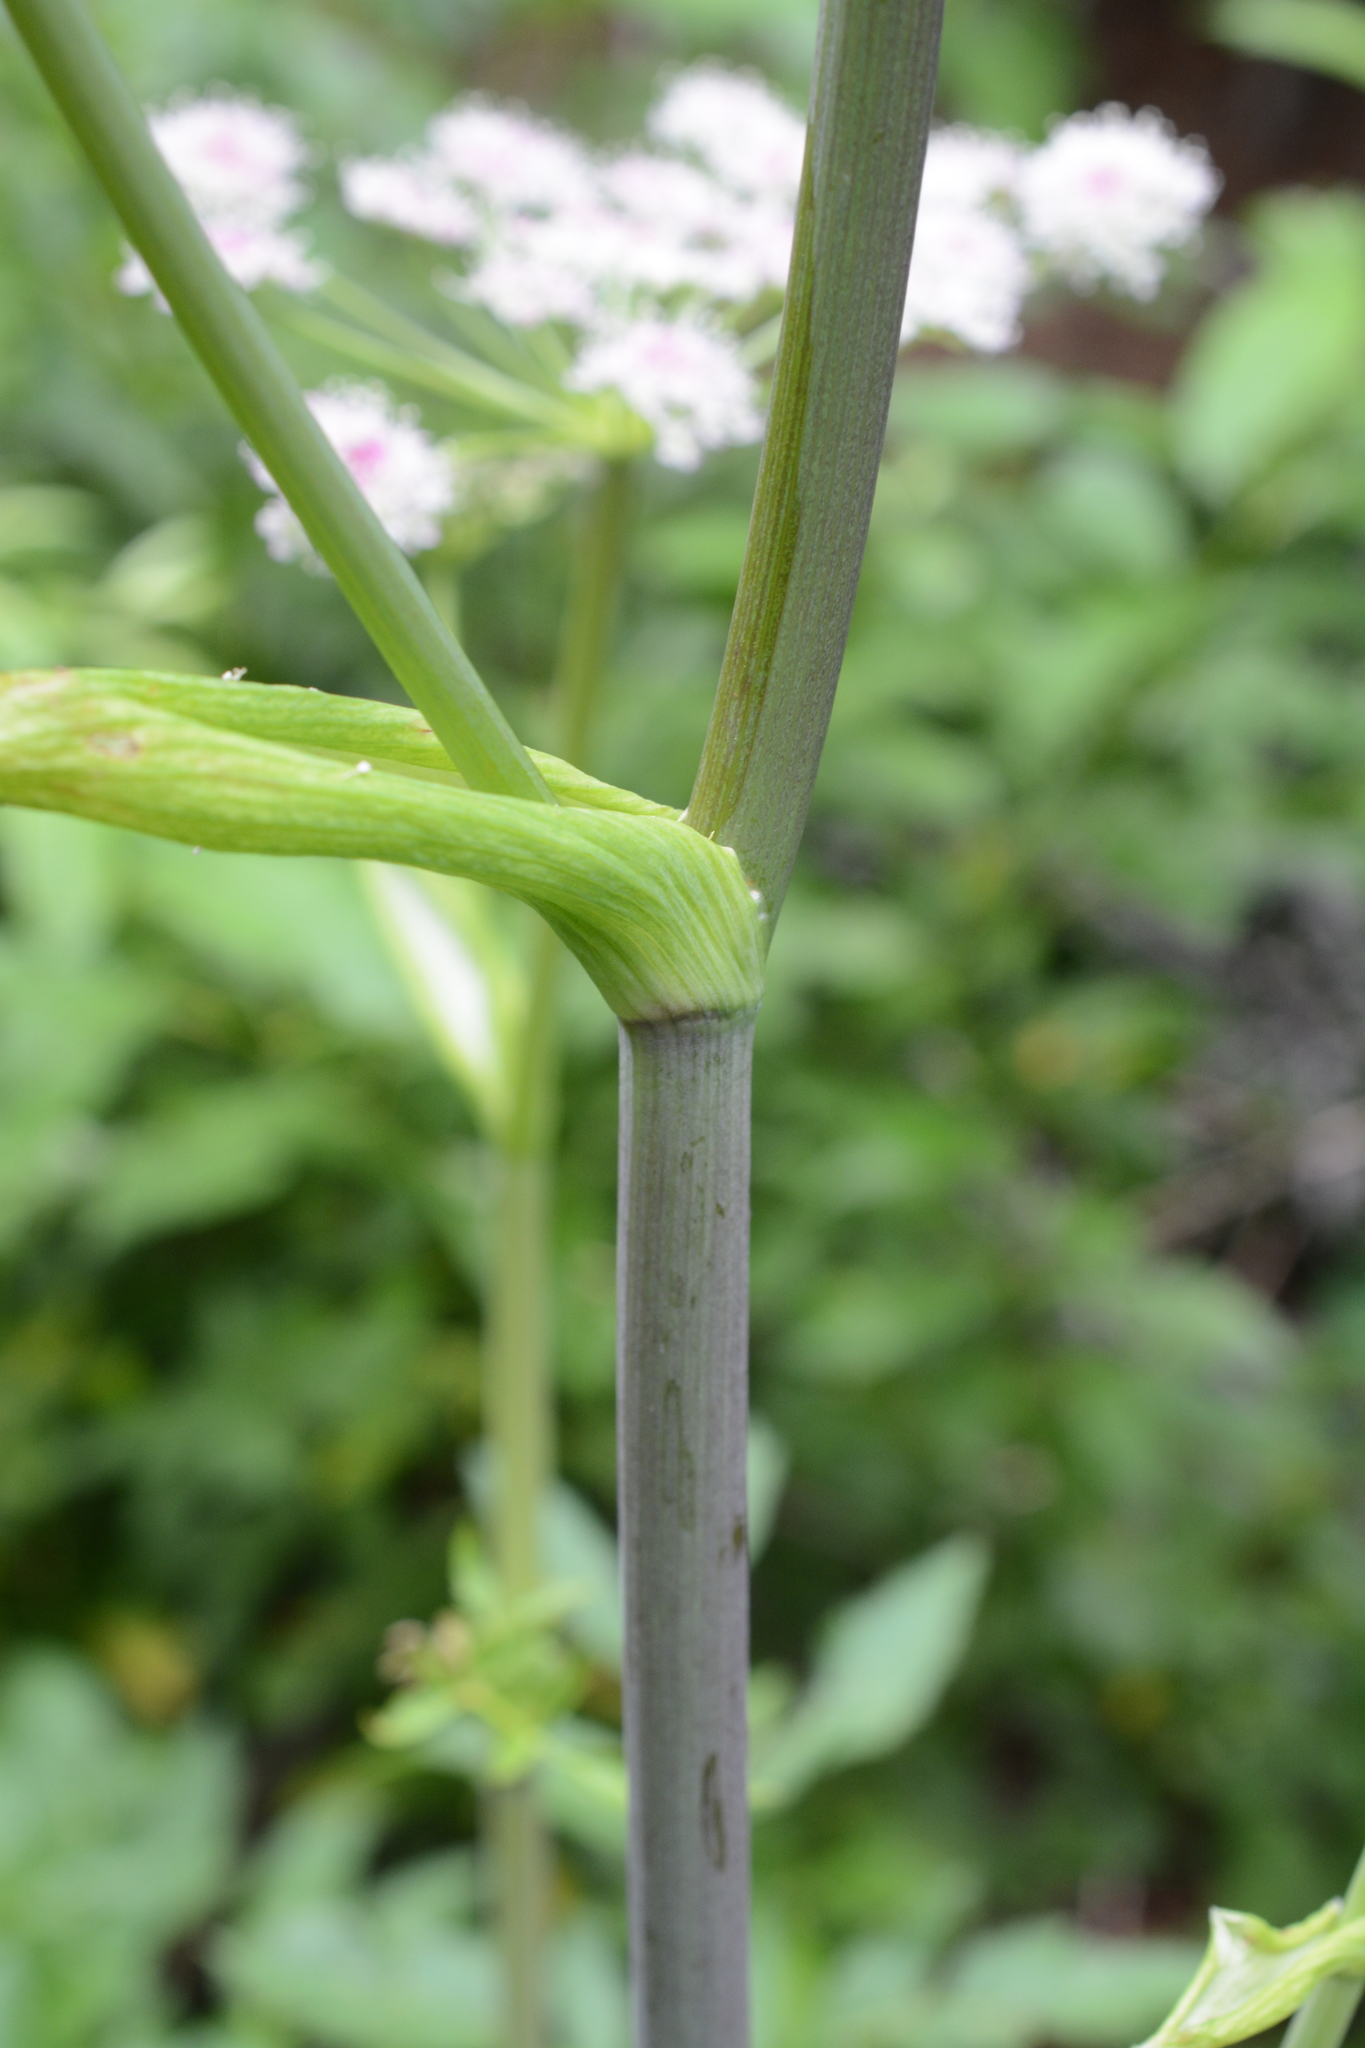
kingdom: Plantae
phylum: Tracheophyta
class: Magnoliopsida
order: Apiales
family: Apiaceae
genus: Angelica
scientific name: Angelica arguta
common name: Lyall's angelica
